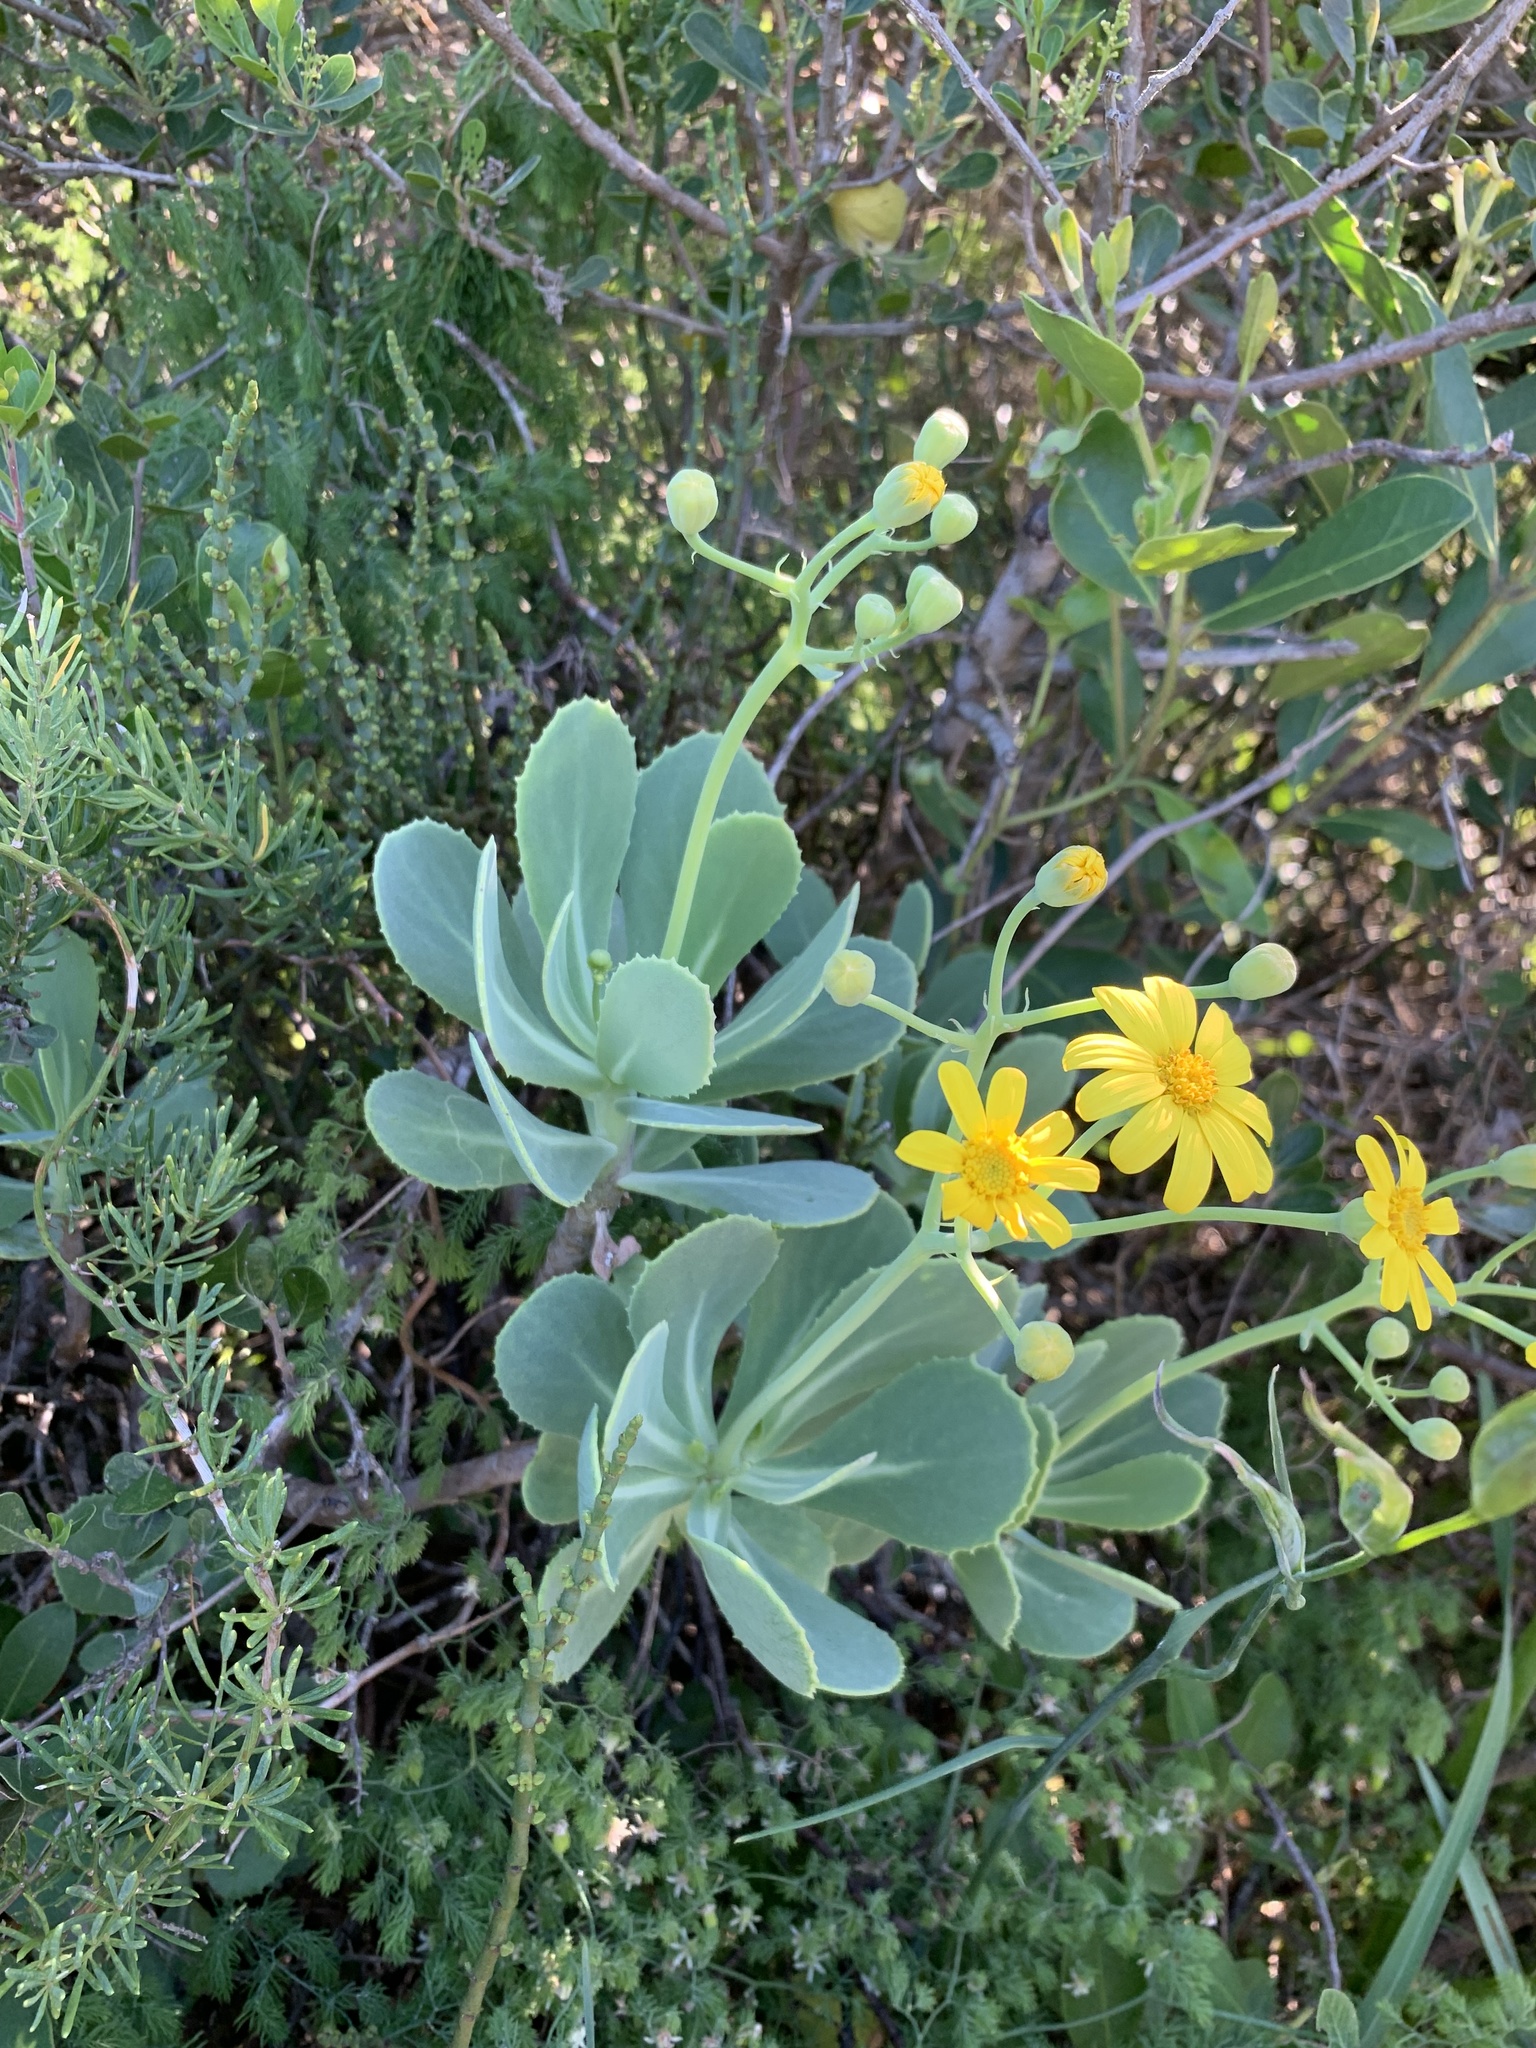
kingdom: Plantae
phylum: Tracheophyta
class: Magnoliopsida
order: Asterales
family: Asteraceae
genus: Othonna
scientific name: Othonna dentata
